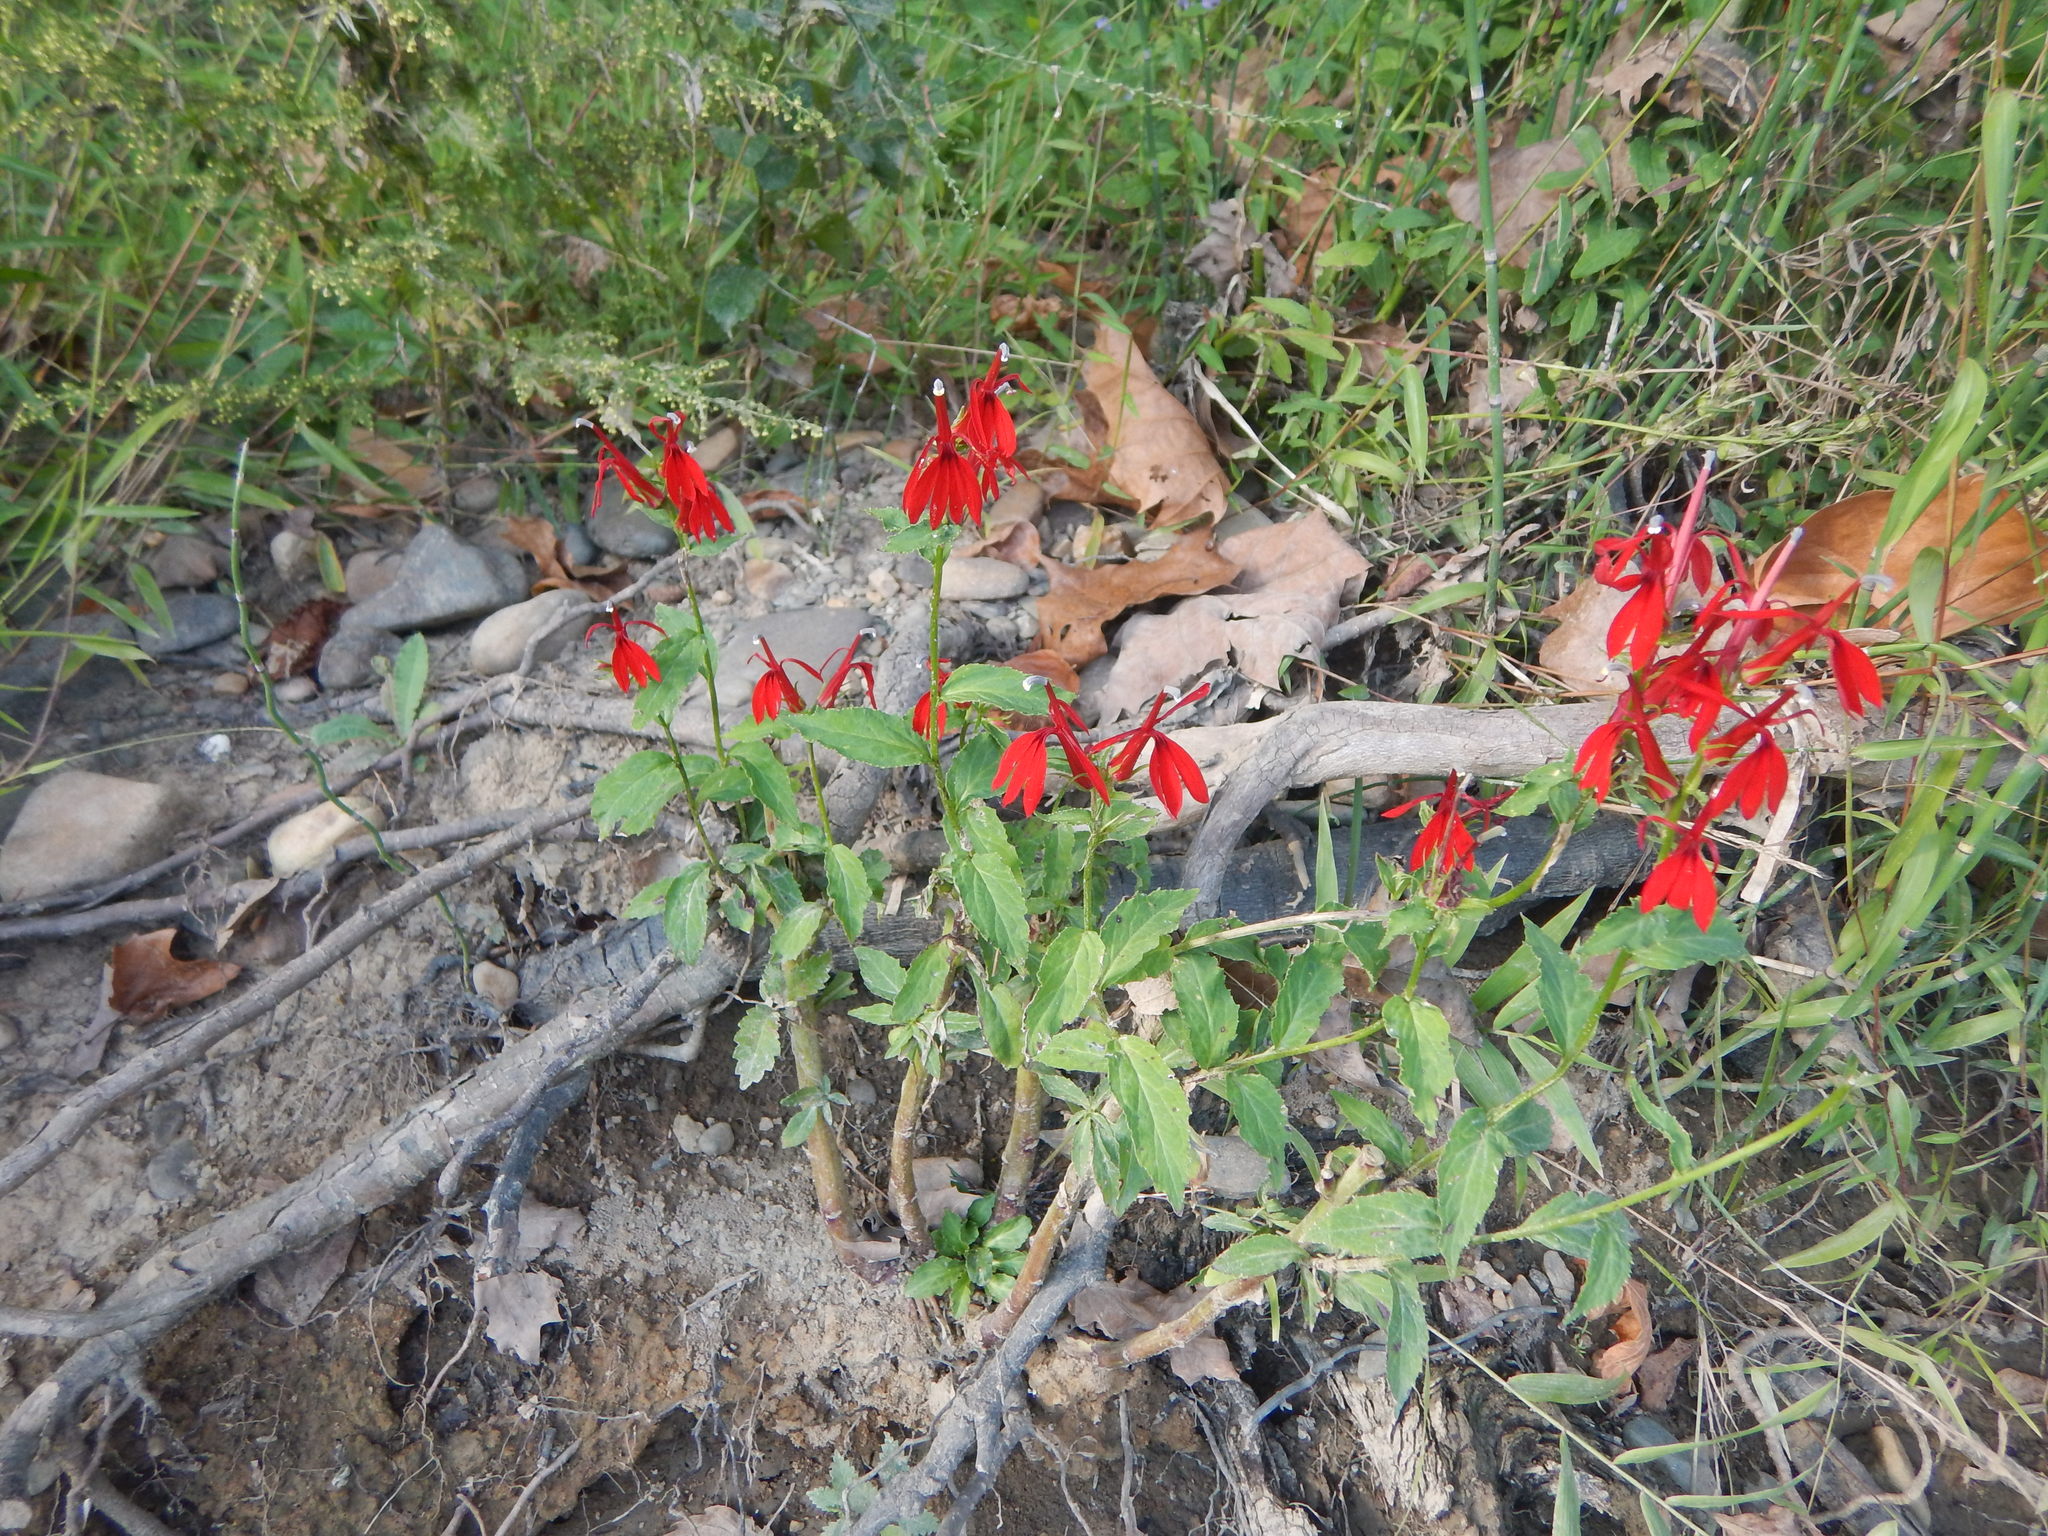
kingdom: Plantae
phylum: Tracheophyta
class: Magnoliopsida
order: Asterales
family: Campanulaceae
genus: Lobelia
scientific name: Lobelia cardinalis
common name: Cardinal flower
